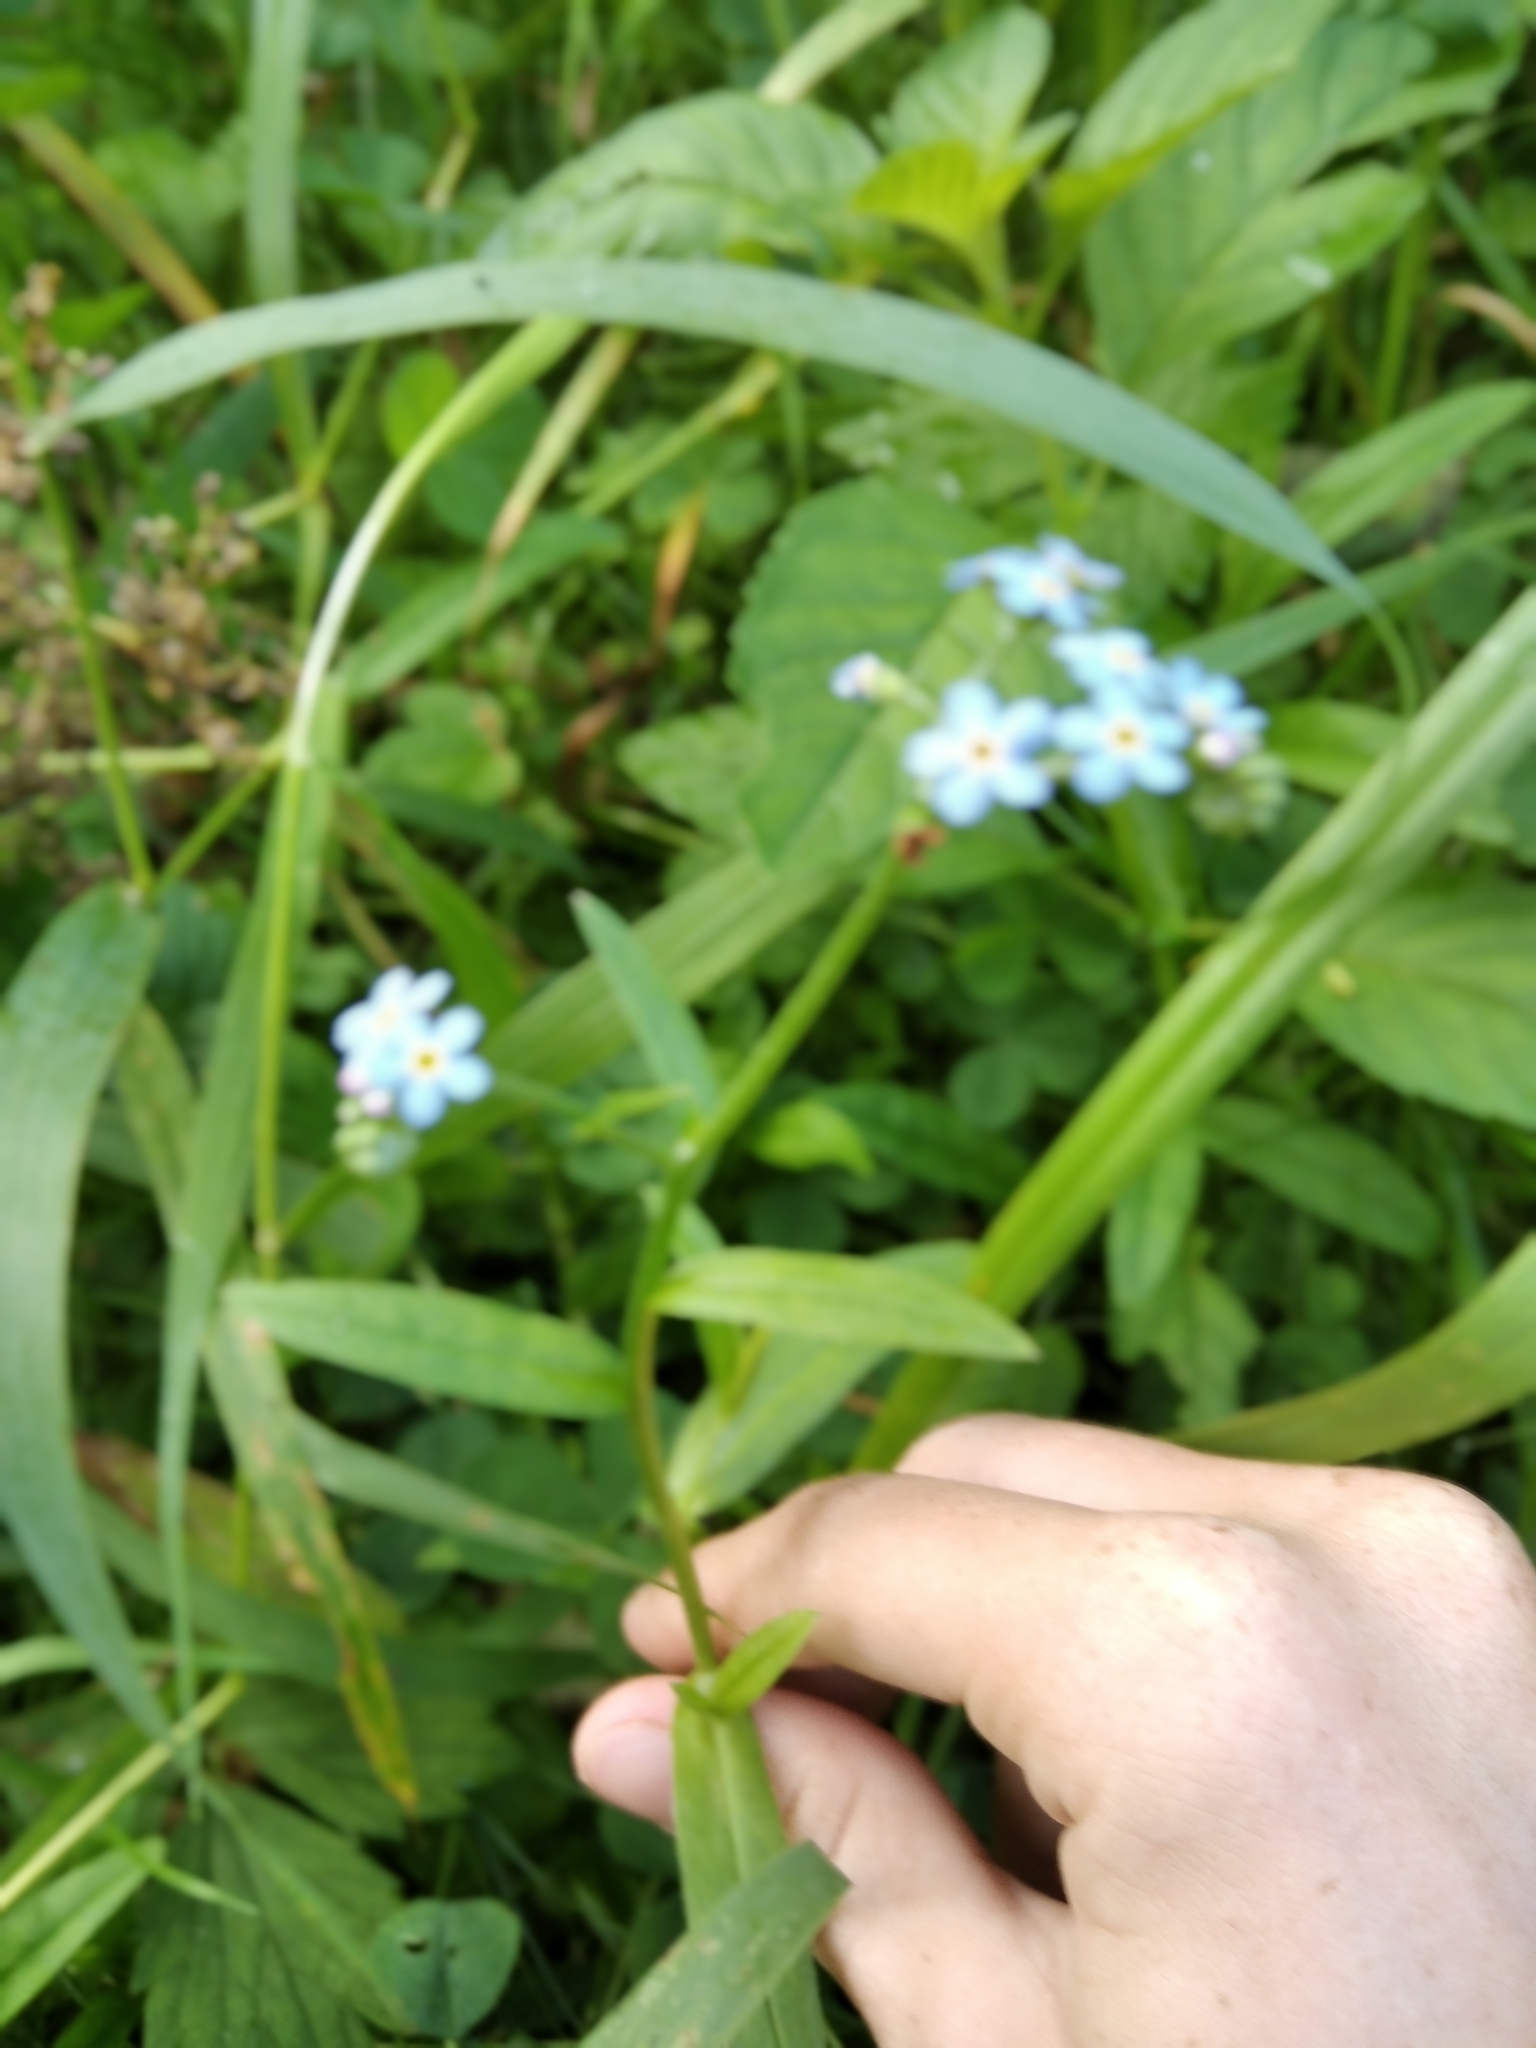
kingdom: Plantae
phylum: Tracheophyta
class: Magnoliopsida
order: Boraginales
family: Boraginaceae
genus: Myosotis
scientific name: Myosotis scorpioides
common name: Water forget-me-not
